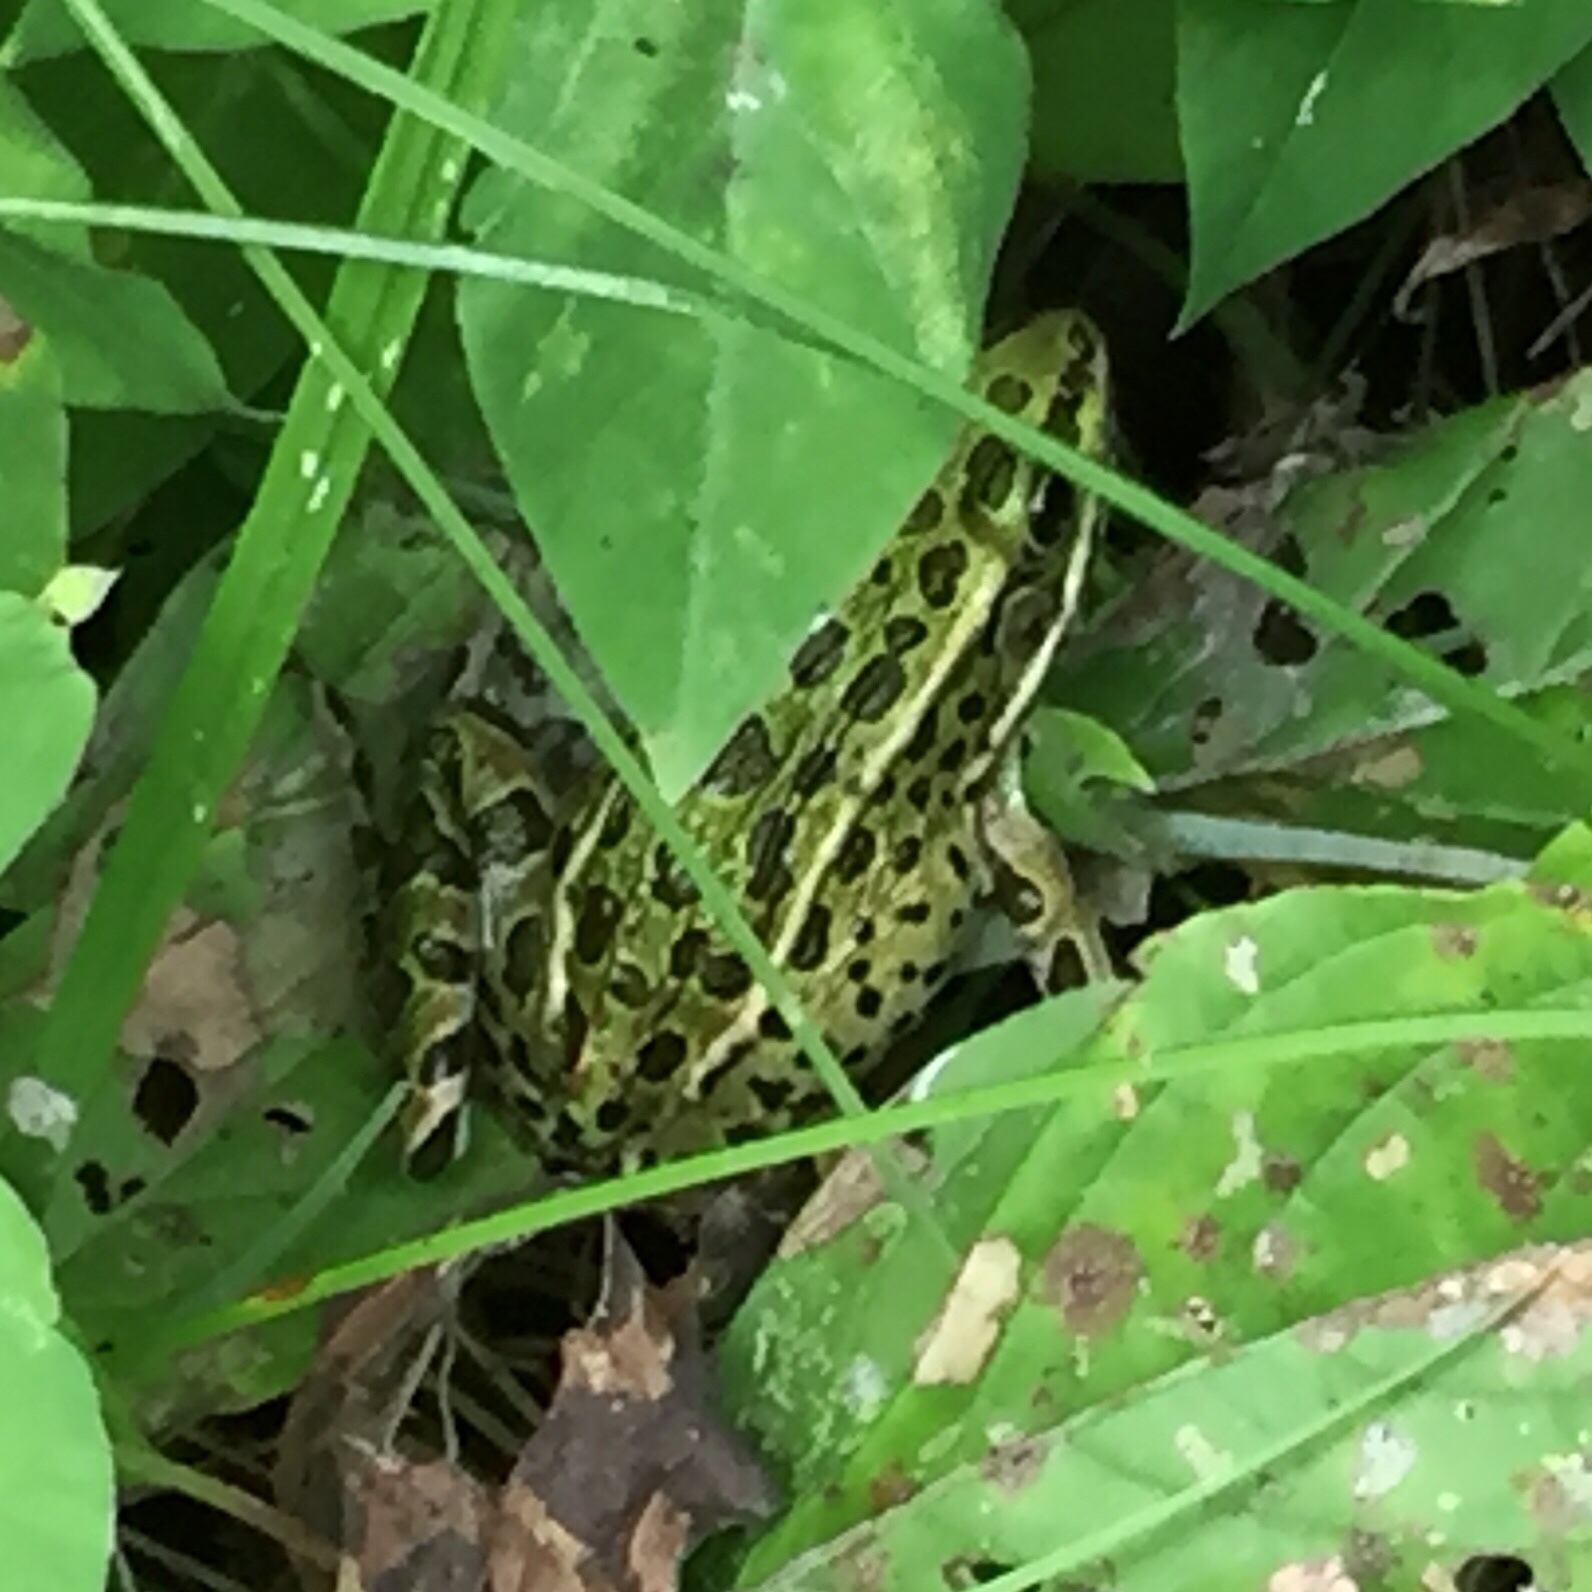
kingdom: Animalia
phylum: Chordata
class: Amphibia
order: Anura
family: Ranidae
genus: Lithobates
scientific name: Lithobates pipiens
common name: Northern leopard frog
